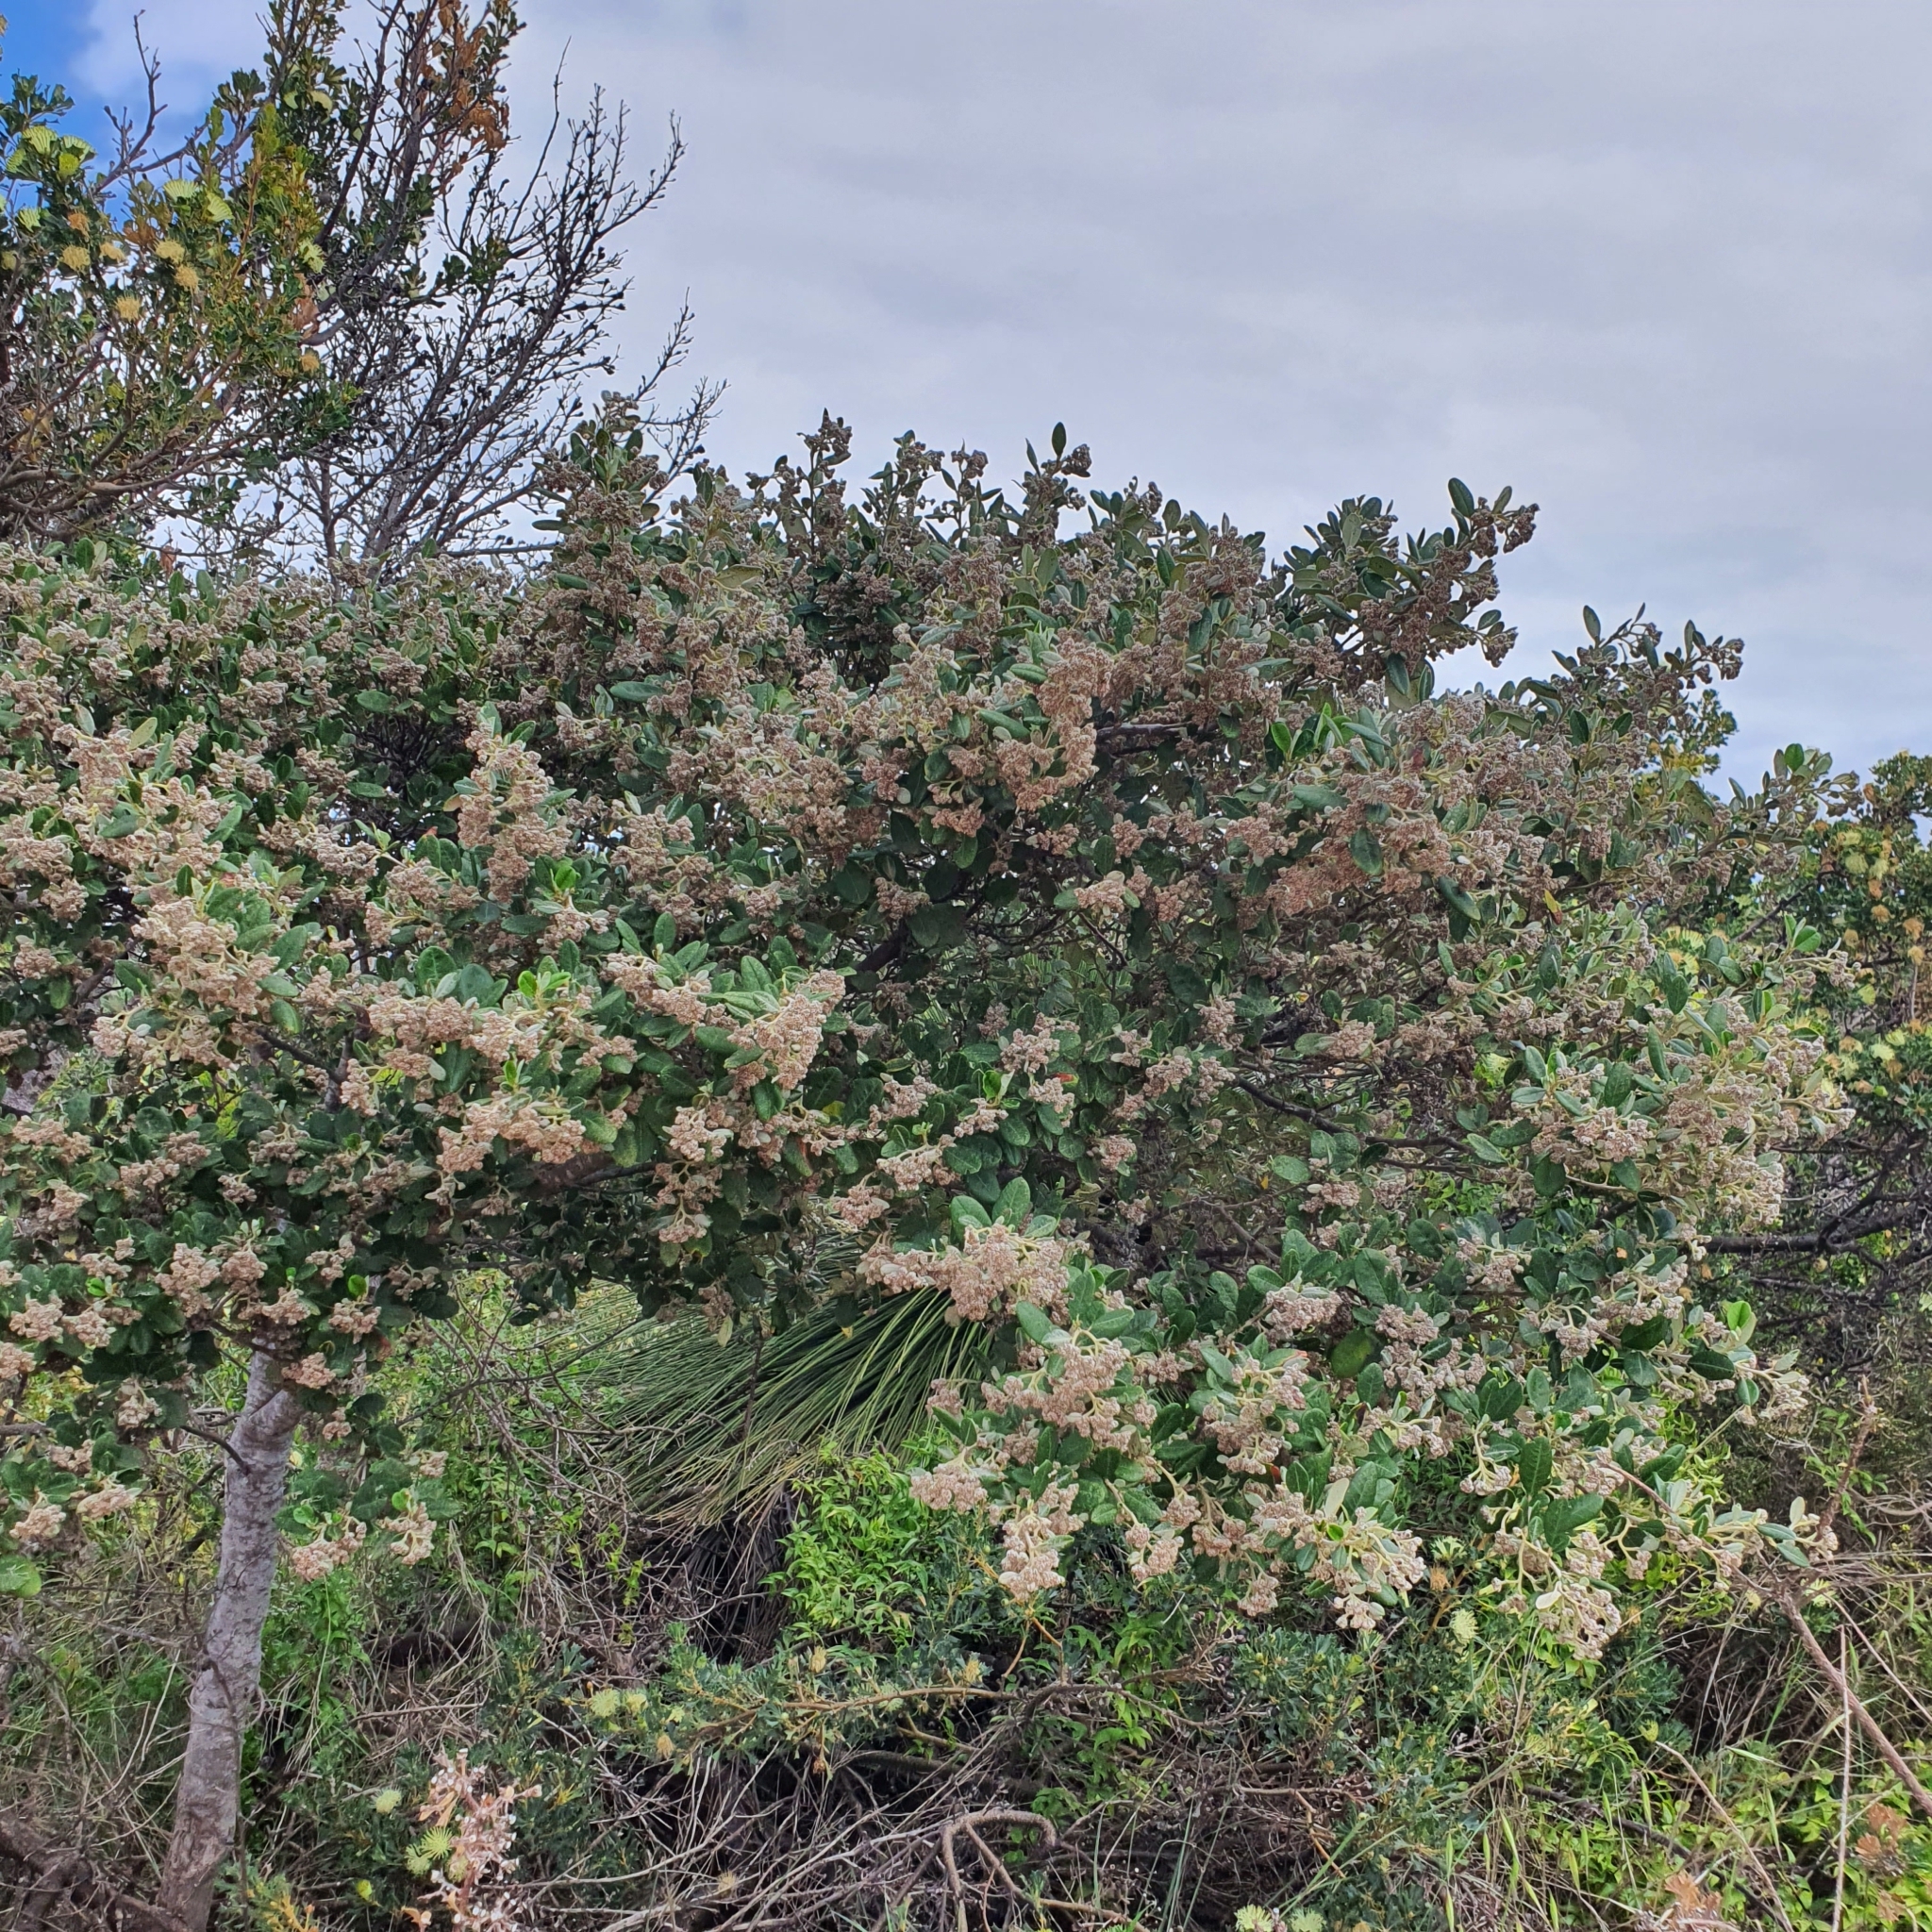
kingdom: Plantae
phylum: Tracheophyta
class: Magnoliopsida
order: Rosales
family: Rhamnaceae
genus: Spyridium
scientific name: Spyridium globulosum
